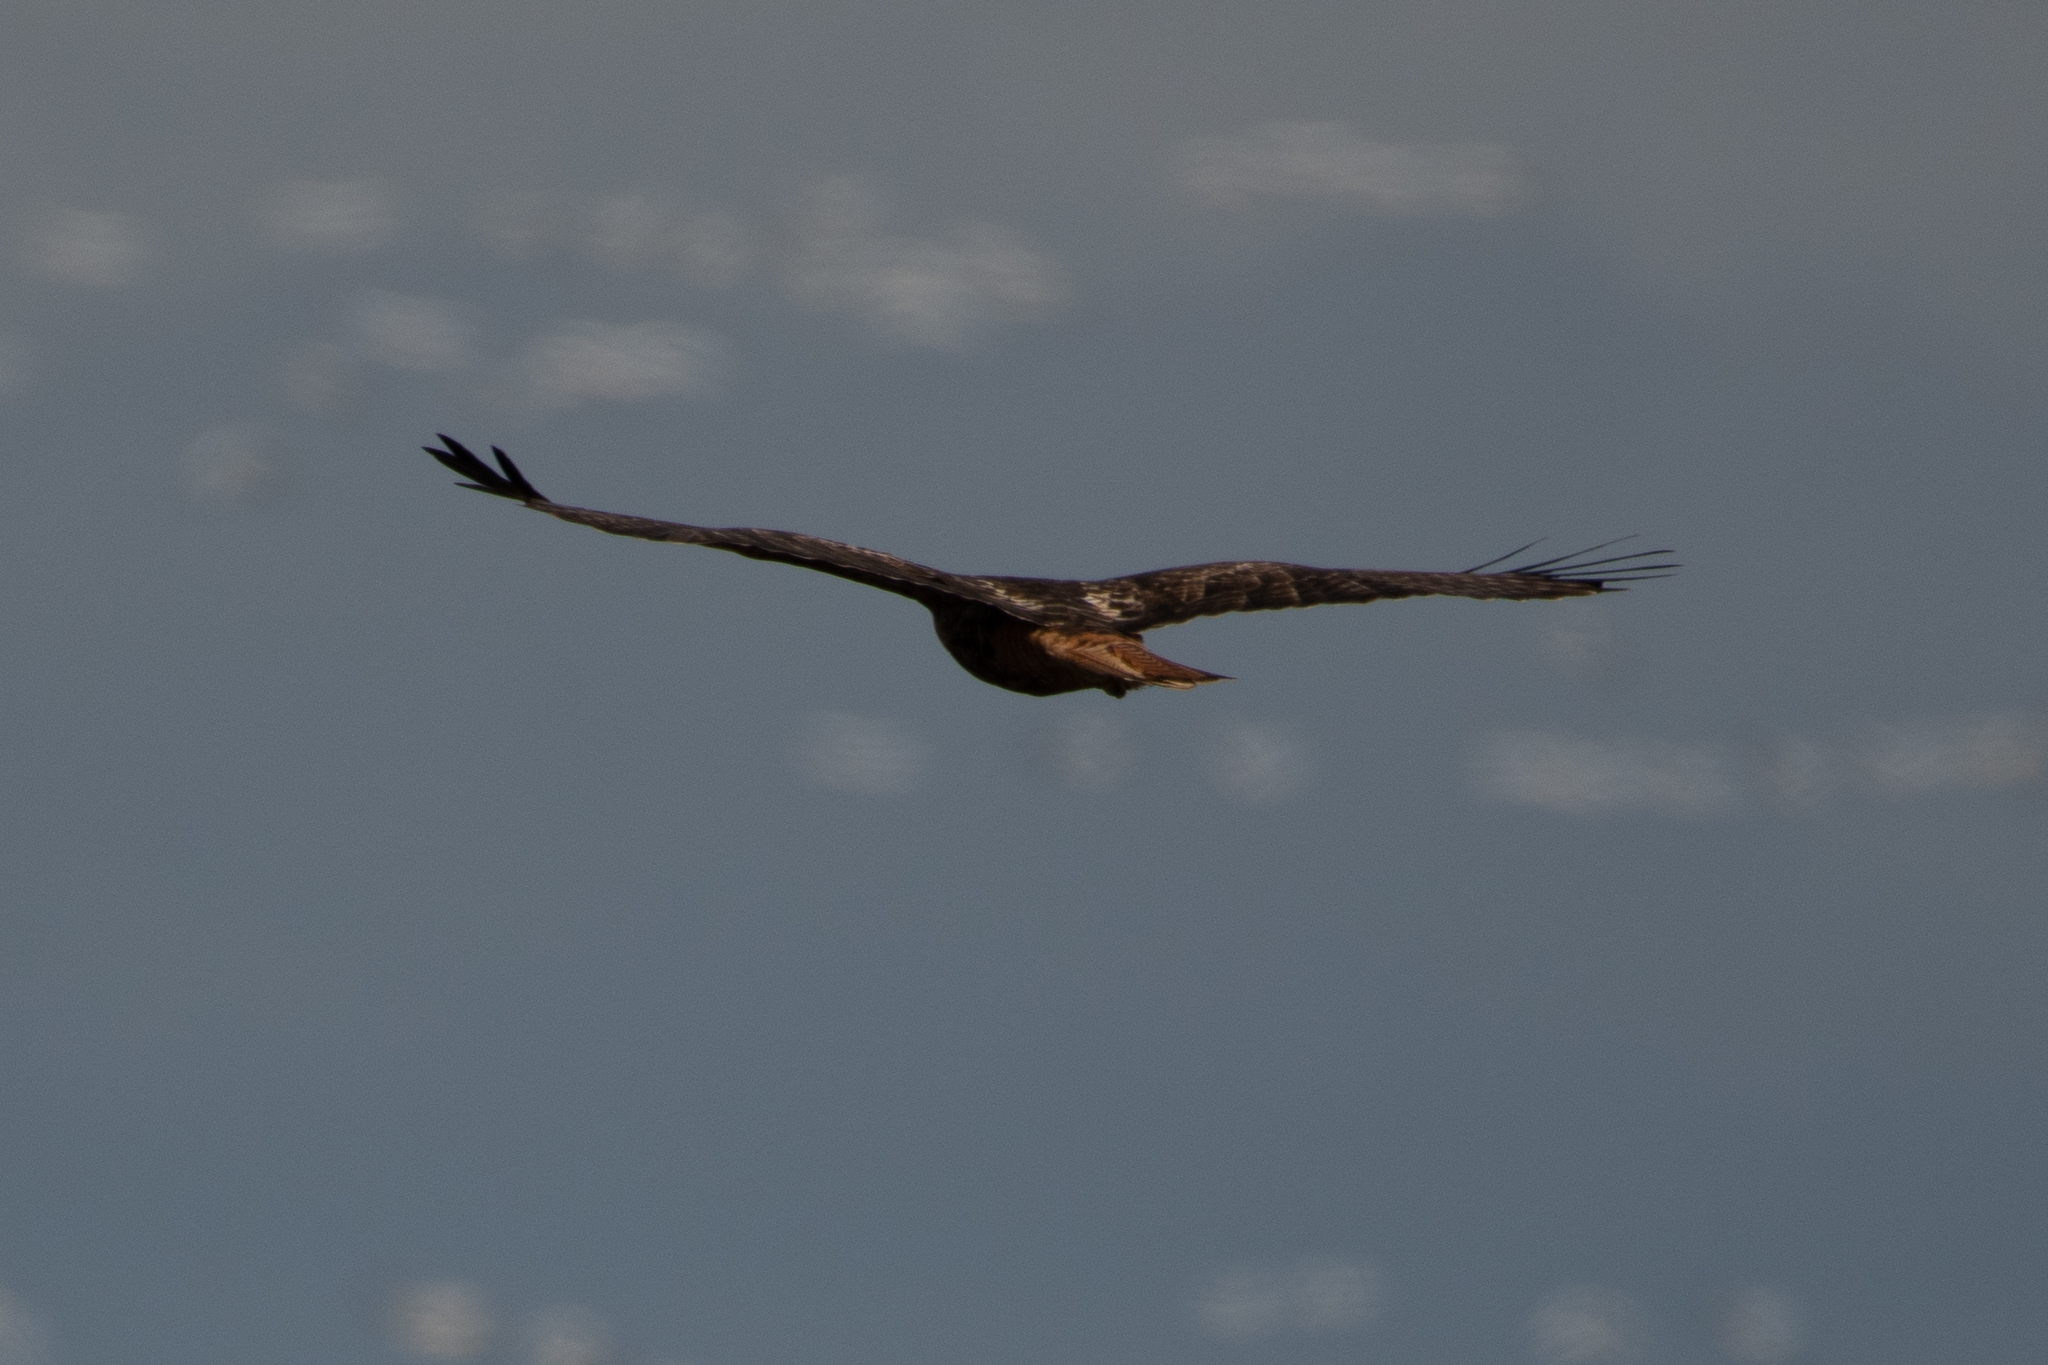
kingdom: Animalia
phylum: Chordata
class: Aves
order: Accipitriformes
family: Accipitridae
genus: Buteo
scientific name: Buteo jamaicensis
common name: Red-tailed hawk
